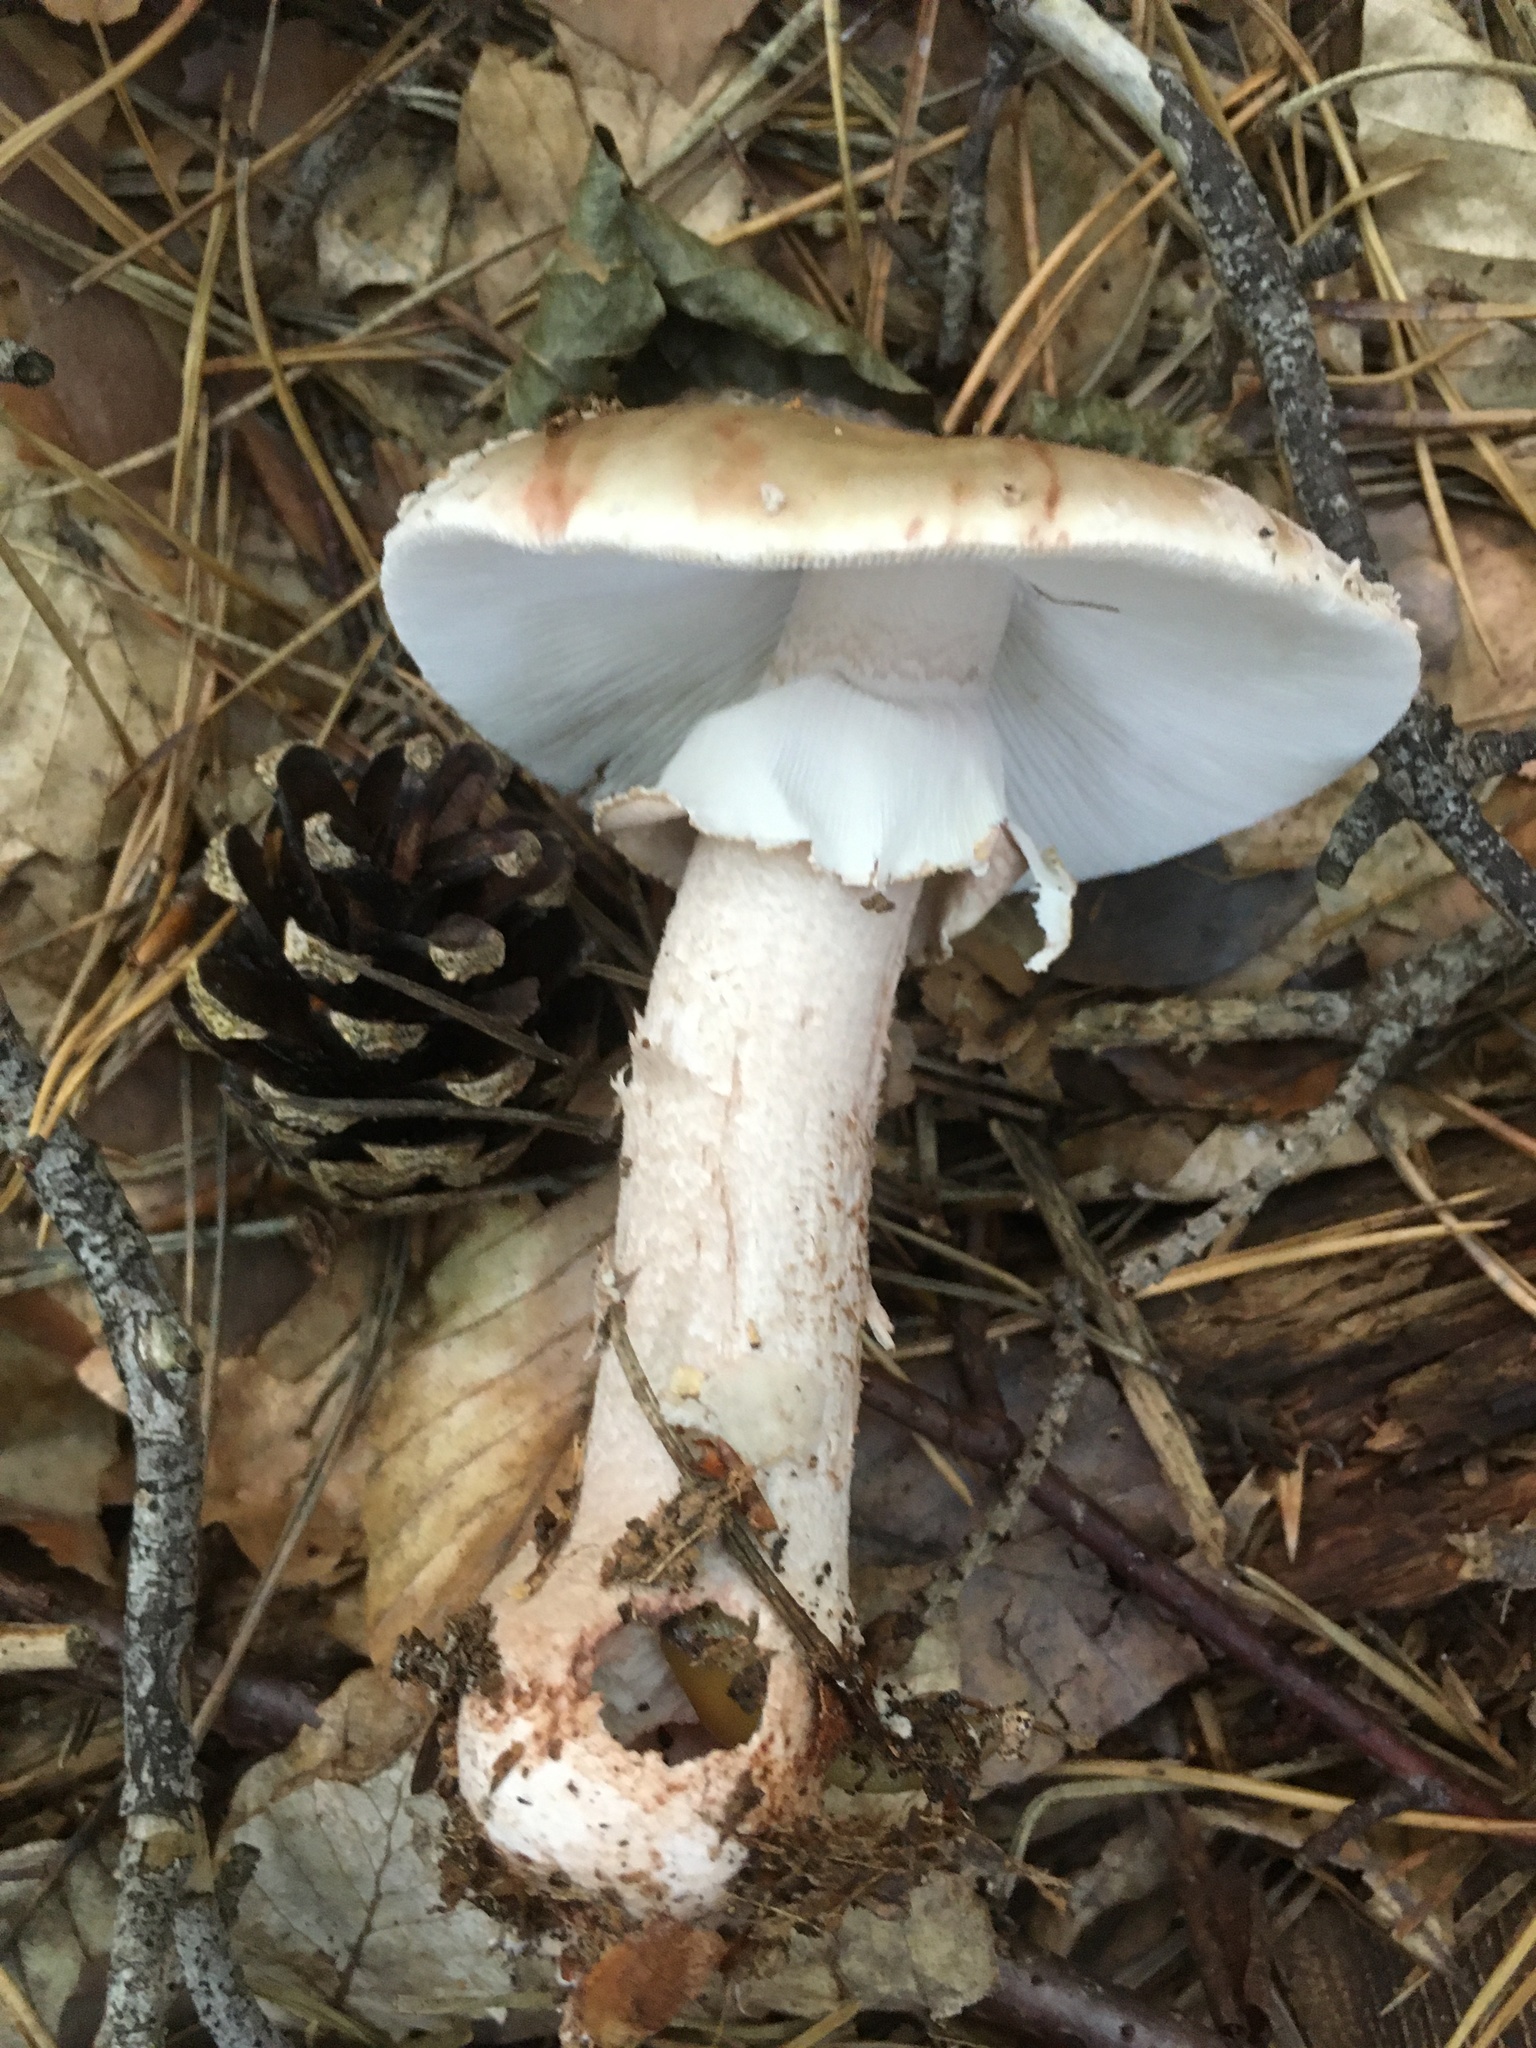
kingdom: Fungi
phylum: Basidiomycota
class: Agaricomycetes
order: Agaricales
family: Amanitaceae
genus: Amanita
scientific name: Amanita rubescens
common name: Blusher
